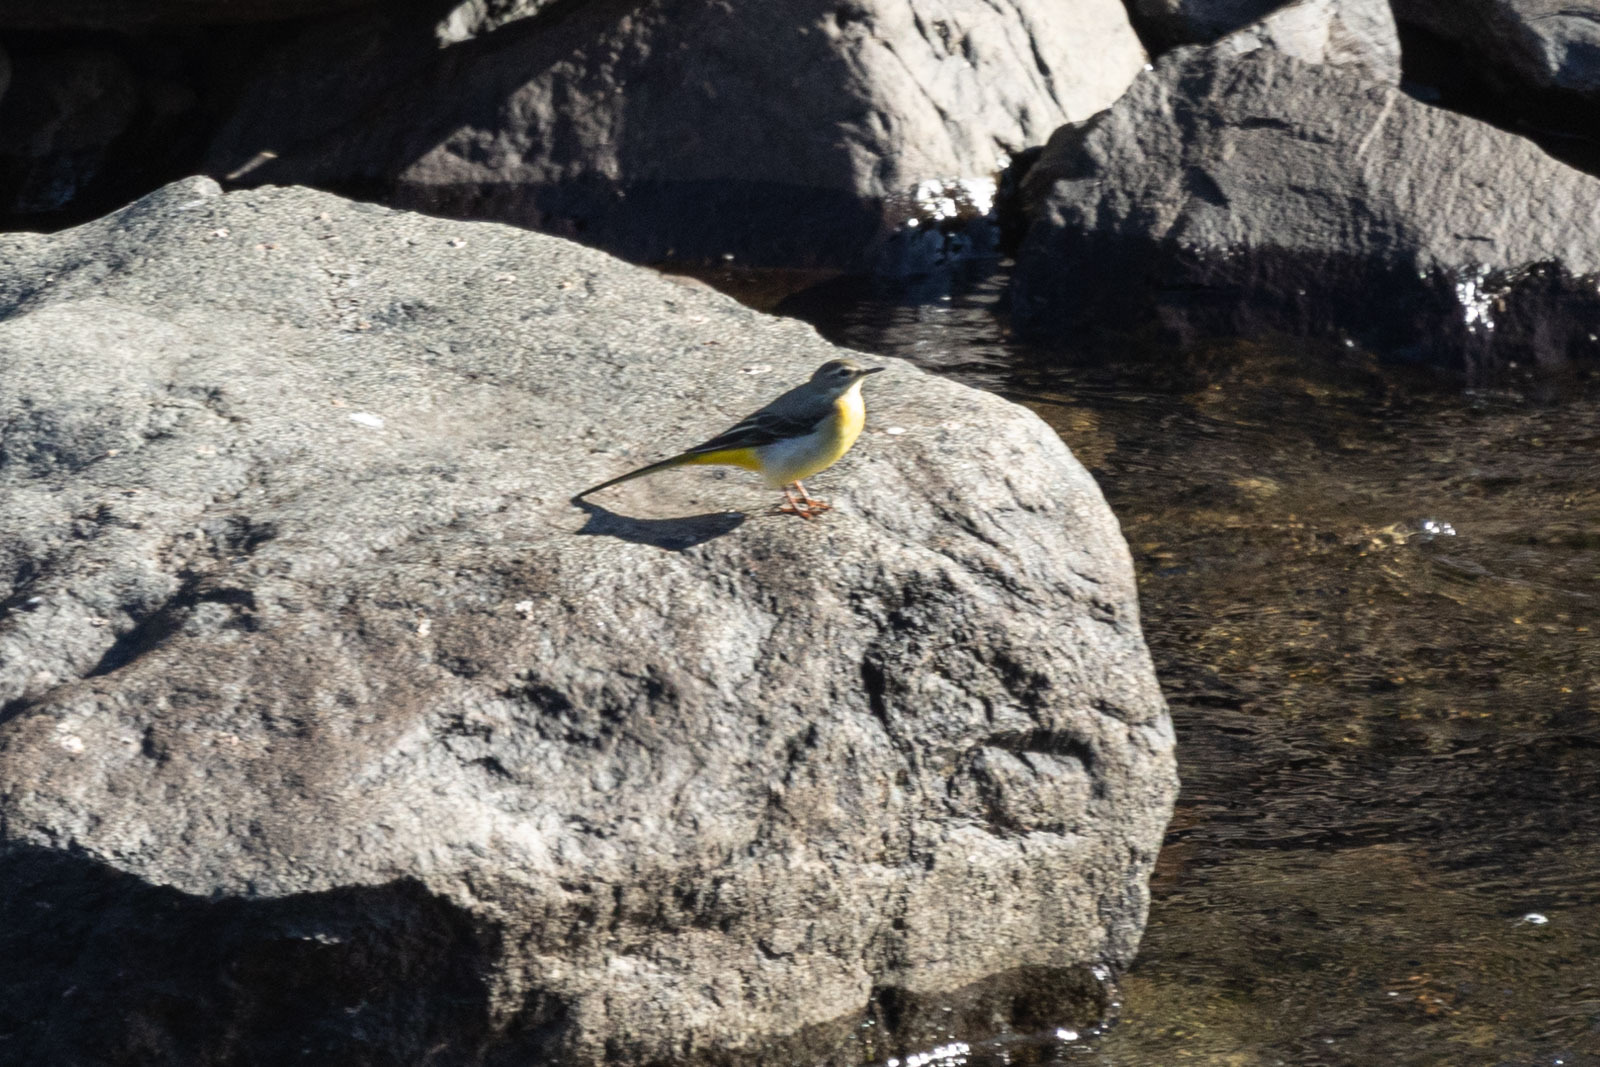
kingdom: Animalia
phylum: Chordata
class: Aves
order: Passeriformes
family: Motacillidae
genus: Motacilla
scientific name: Motacilla cinerea
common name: Grey wagtail
